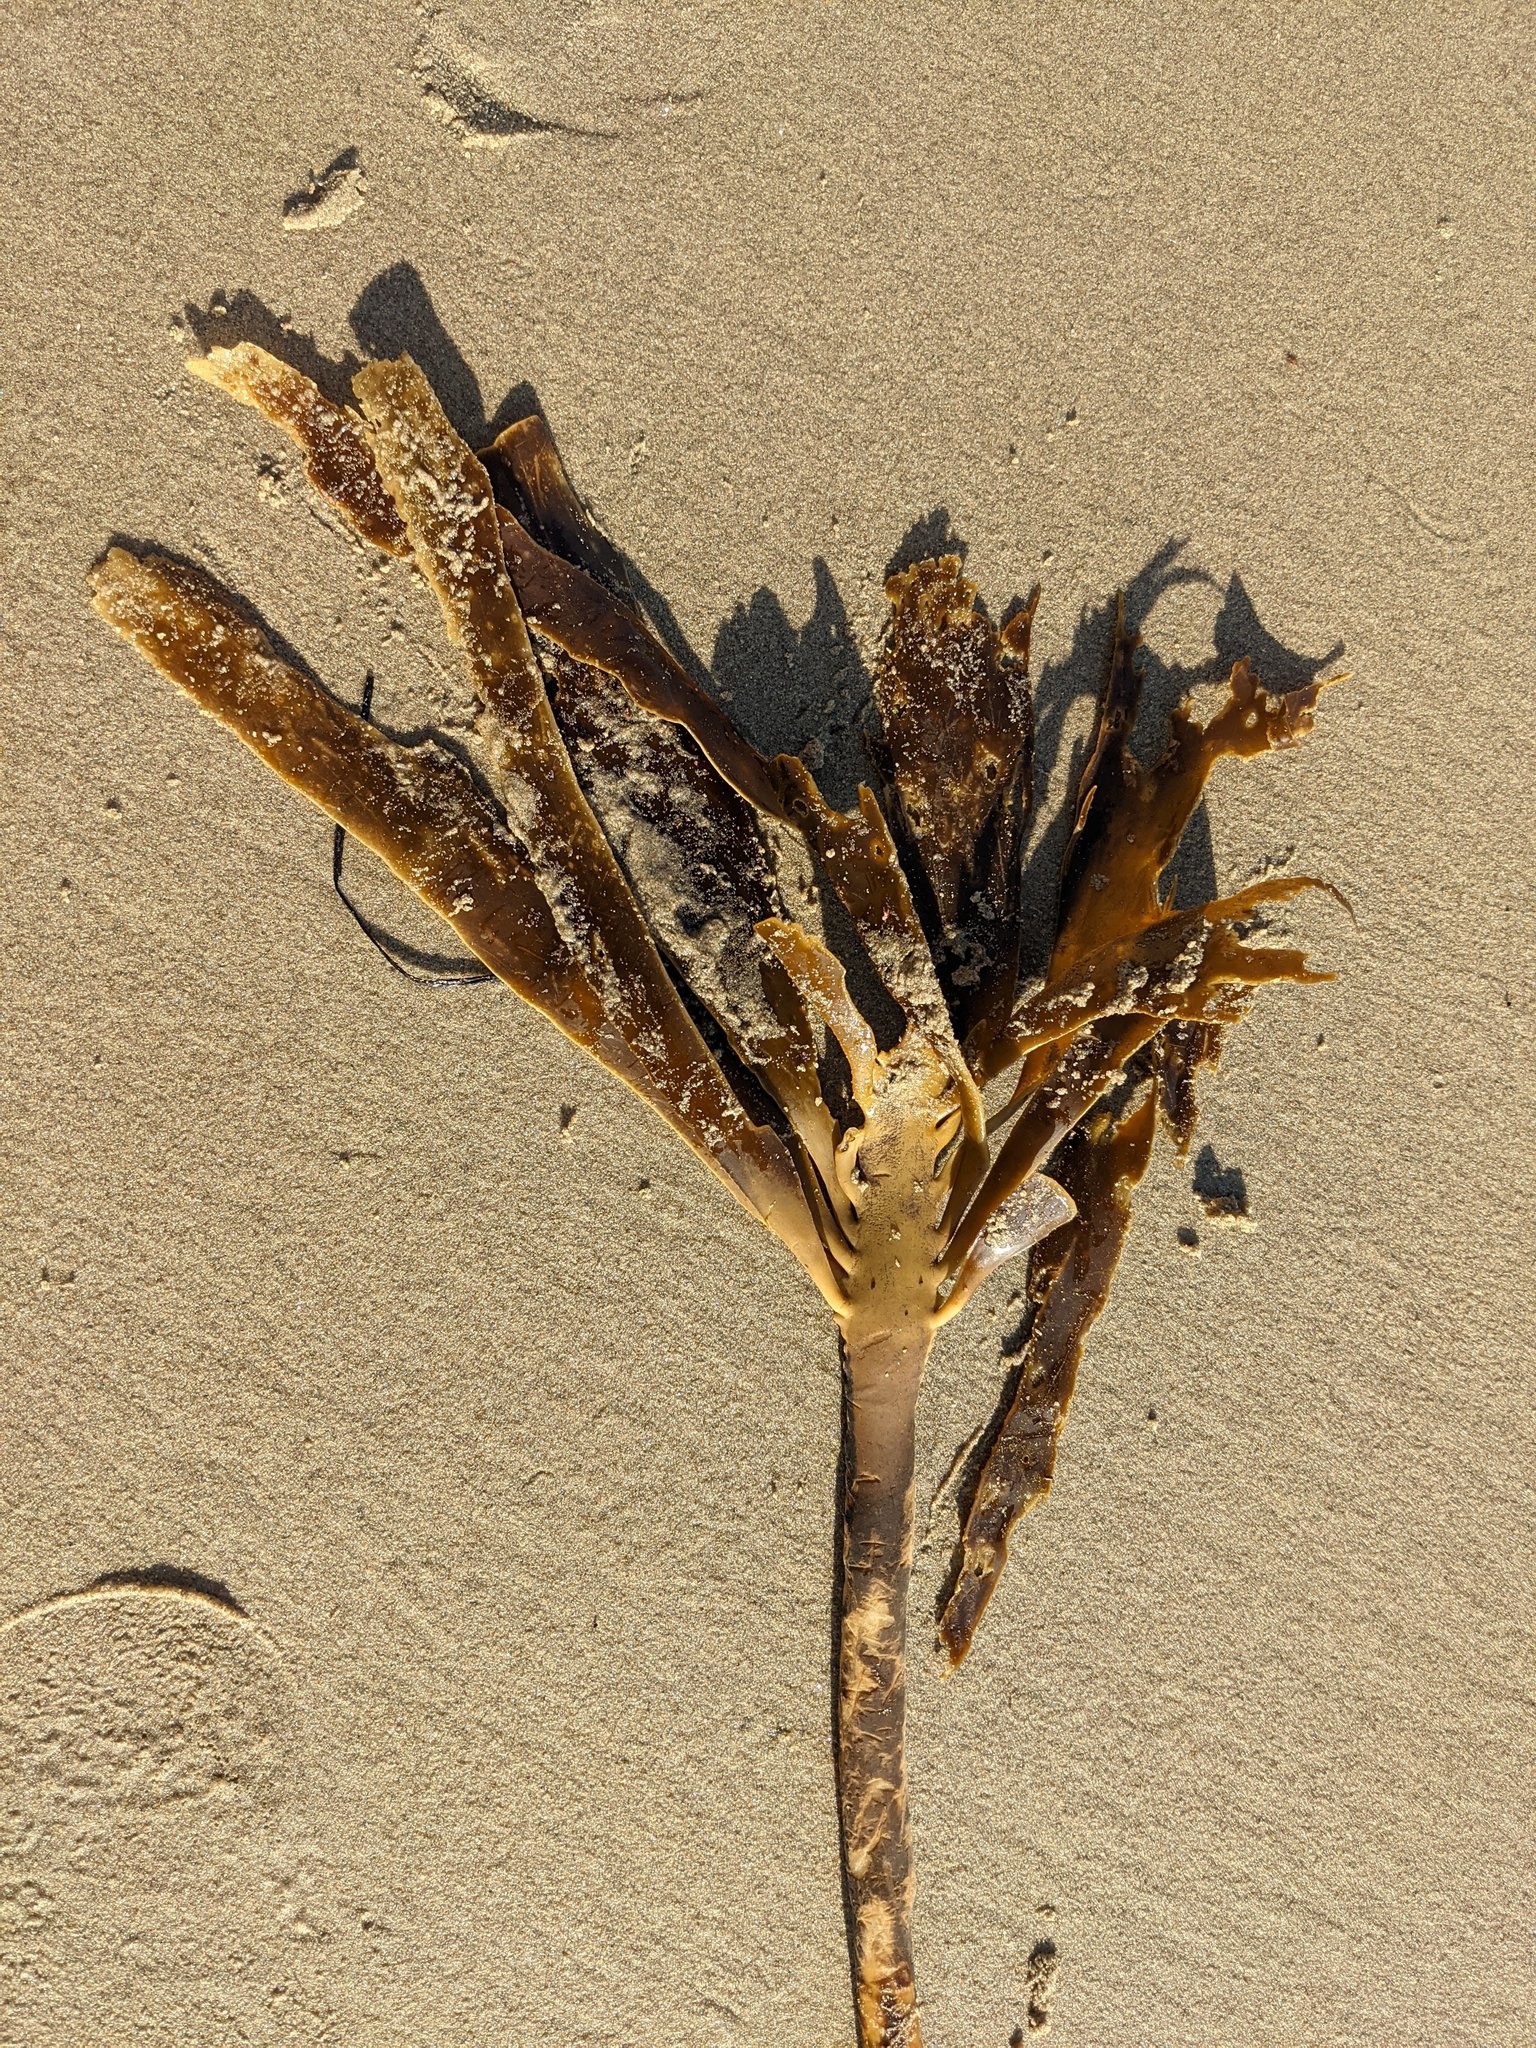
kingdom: Chromista
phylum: Ochrophyta
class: Phaeophyceae
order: Laminariales
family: Alariaceae
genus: Pterygophora
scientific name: Pterygophora californica
